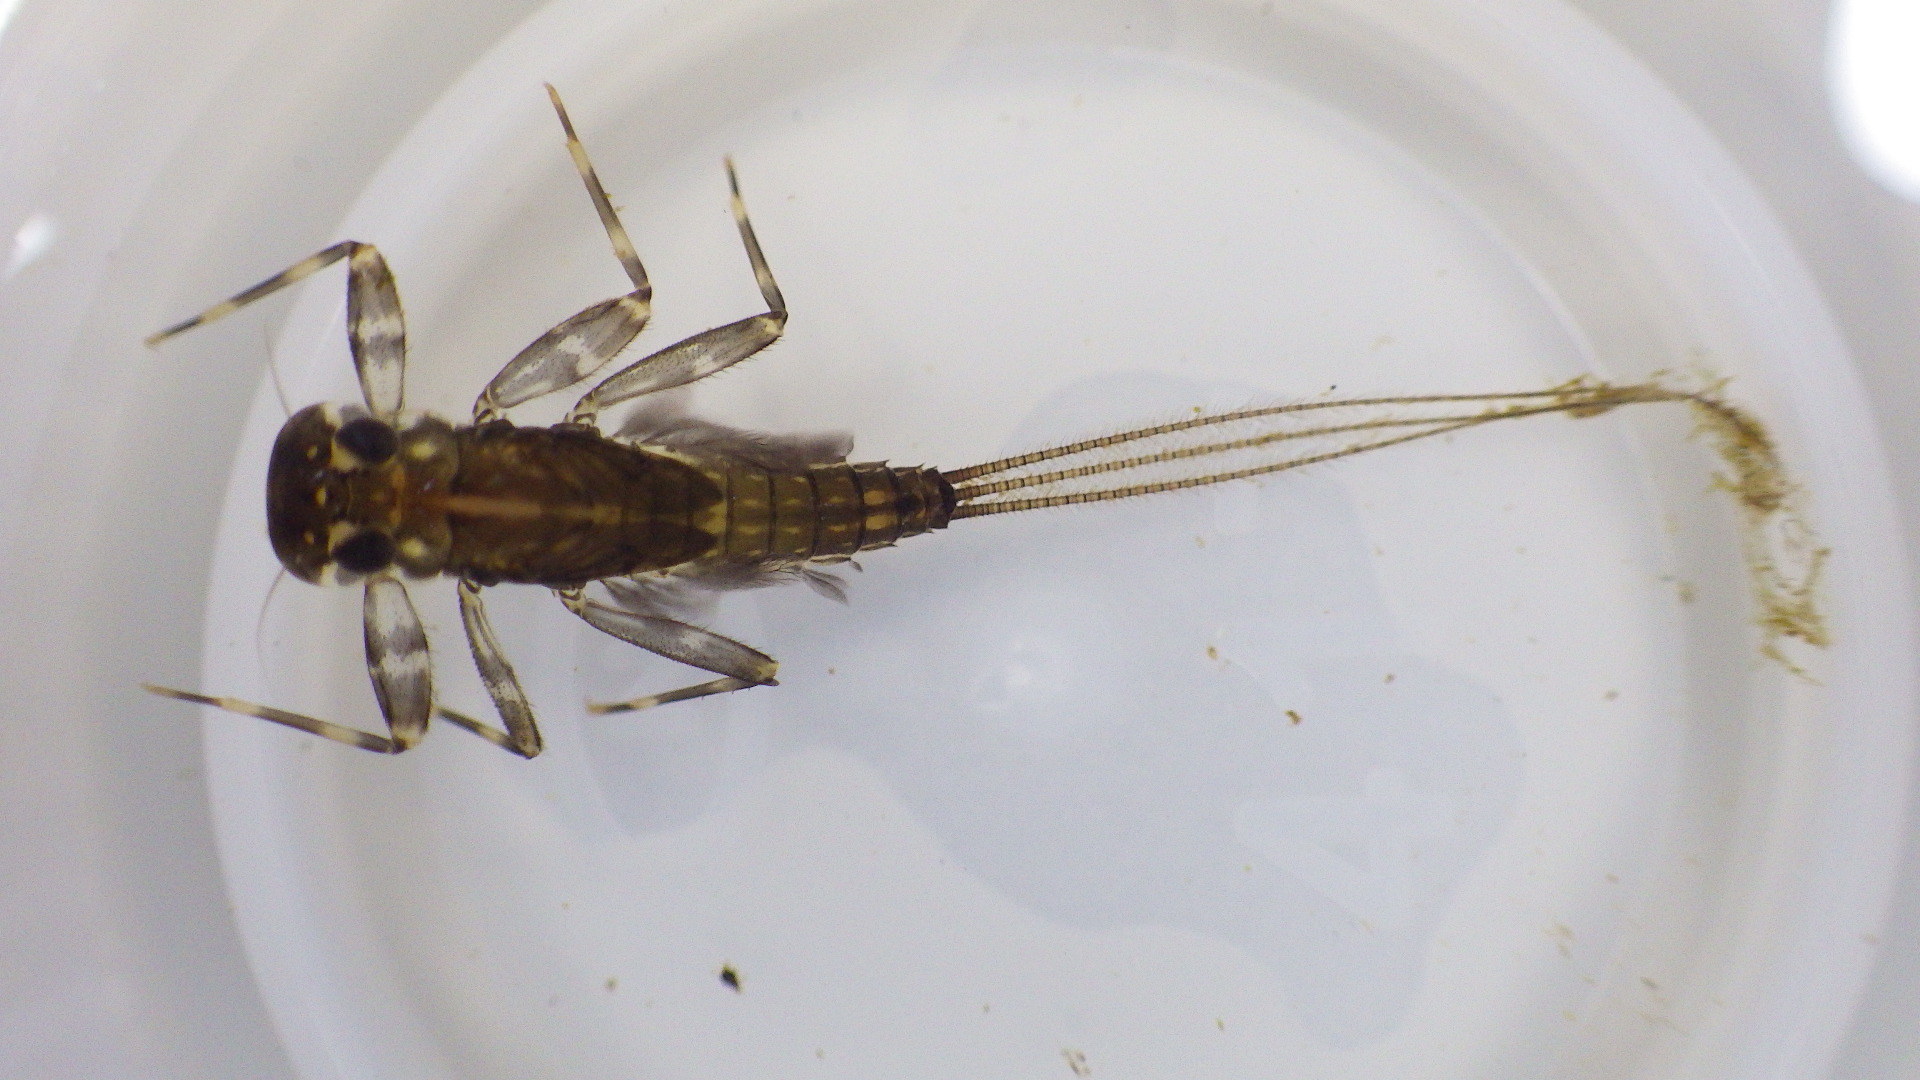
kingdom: Animalia
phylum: Arthropoda
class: Insecta
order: Ephemeroptera
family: Heptageniidae
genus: Stenacron
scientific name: Stenacron interpunctatum
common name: Orange cahill
